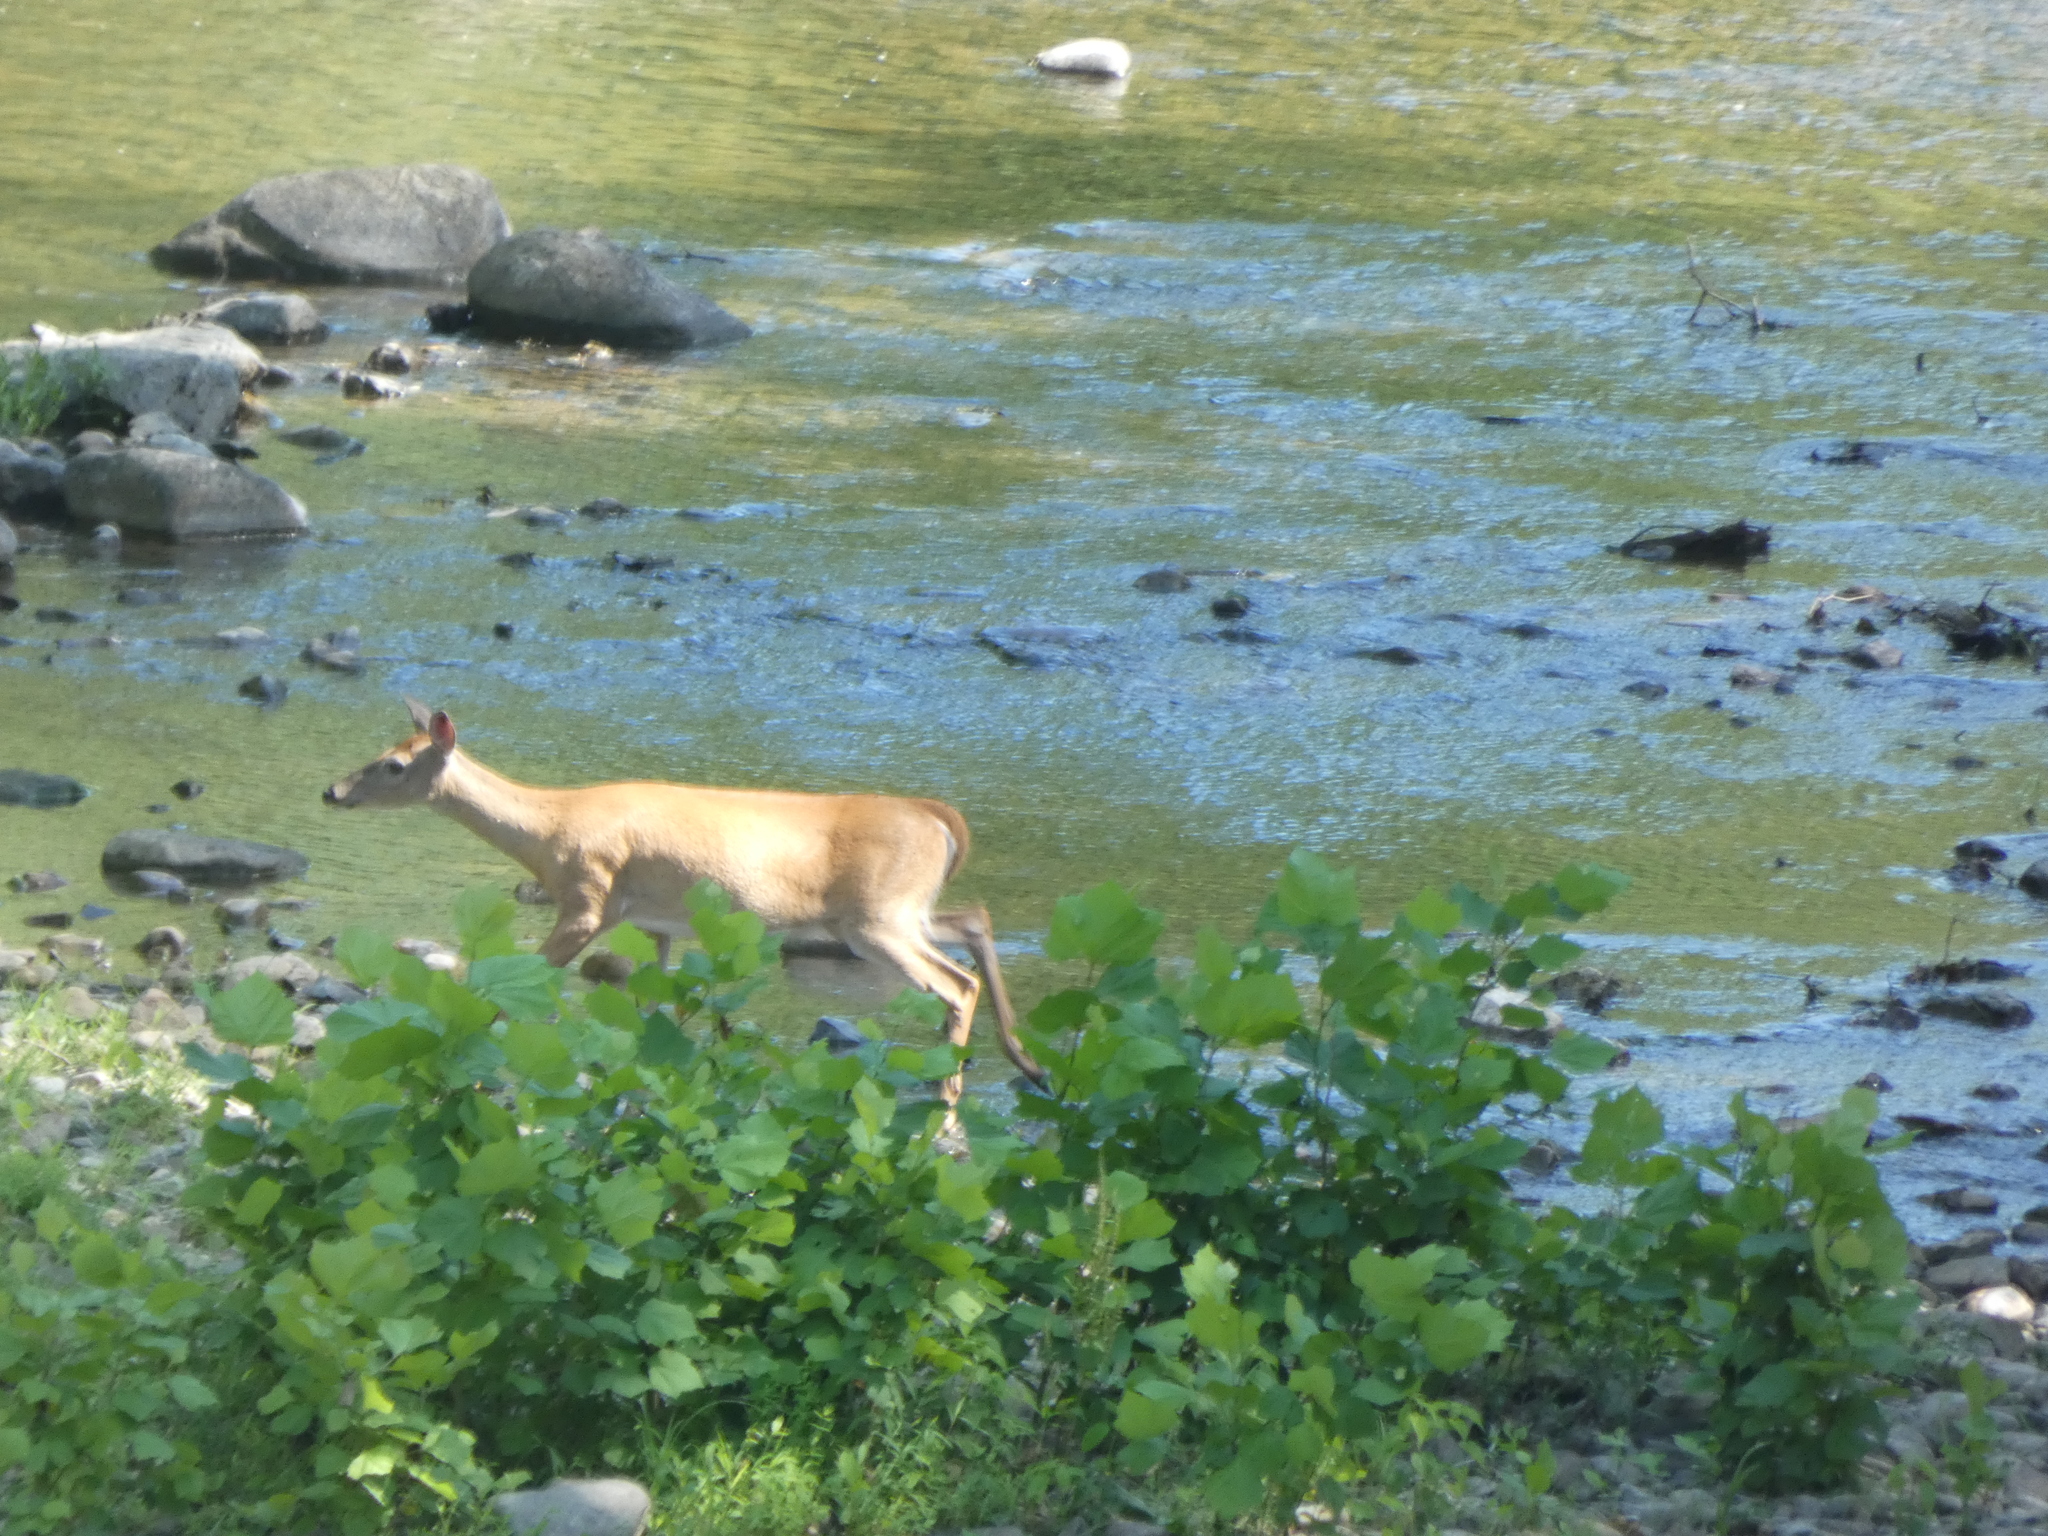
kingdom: Animalia
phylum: Chordata
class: Mammalia
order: Artiodactyla
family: Cervidae
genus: Odocoileus
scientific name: Odocoileus virginianus
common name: White-tailed deer
